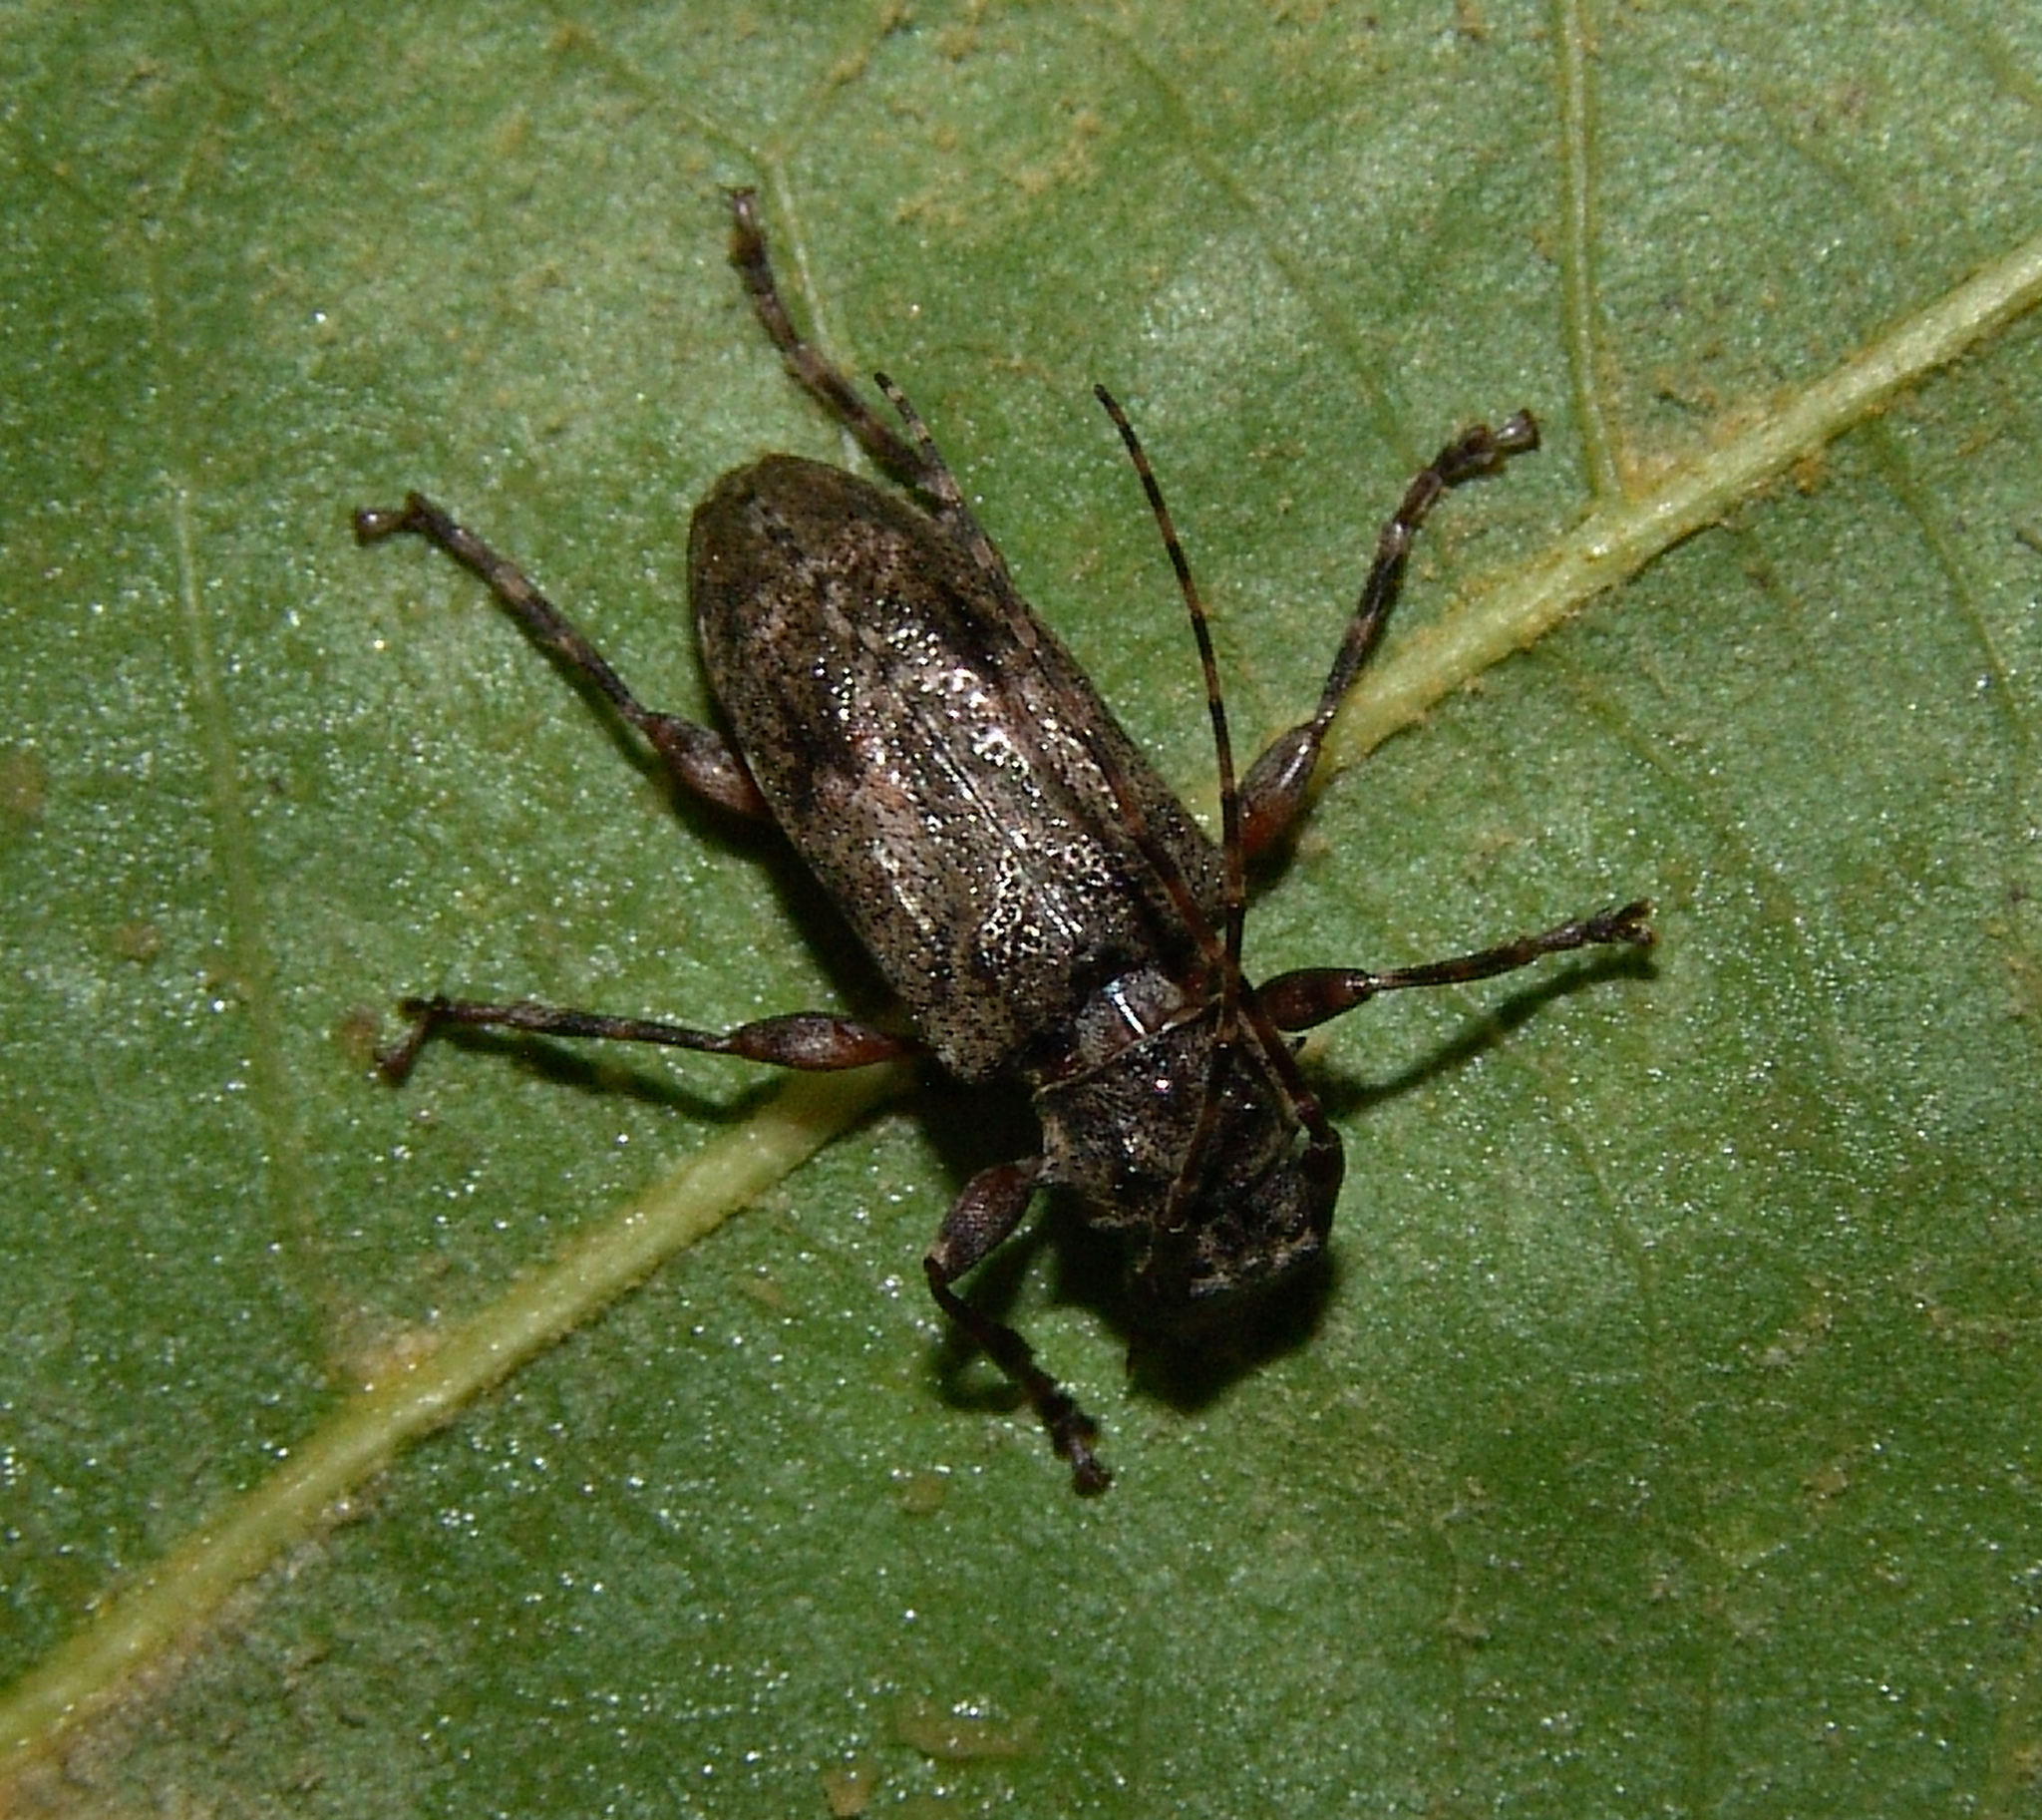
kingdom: Animalia
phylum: Arthropoda
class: Insecta
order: Coleoptera
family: Cerambycidae
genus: Aegomorphus
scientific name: Aegomorphus modestus
